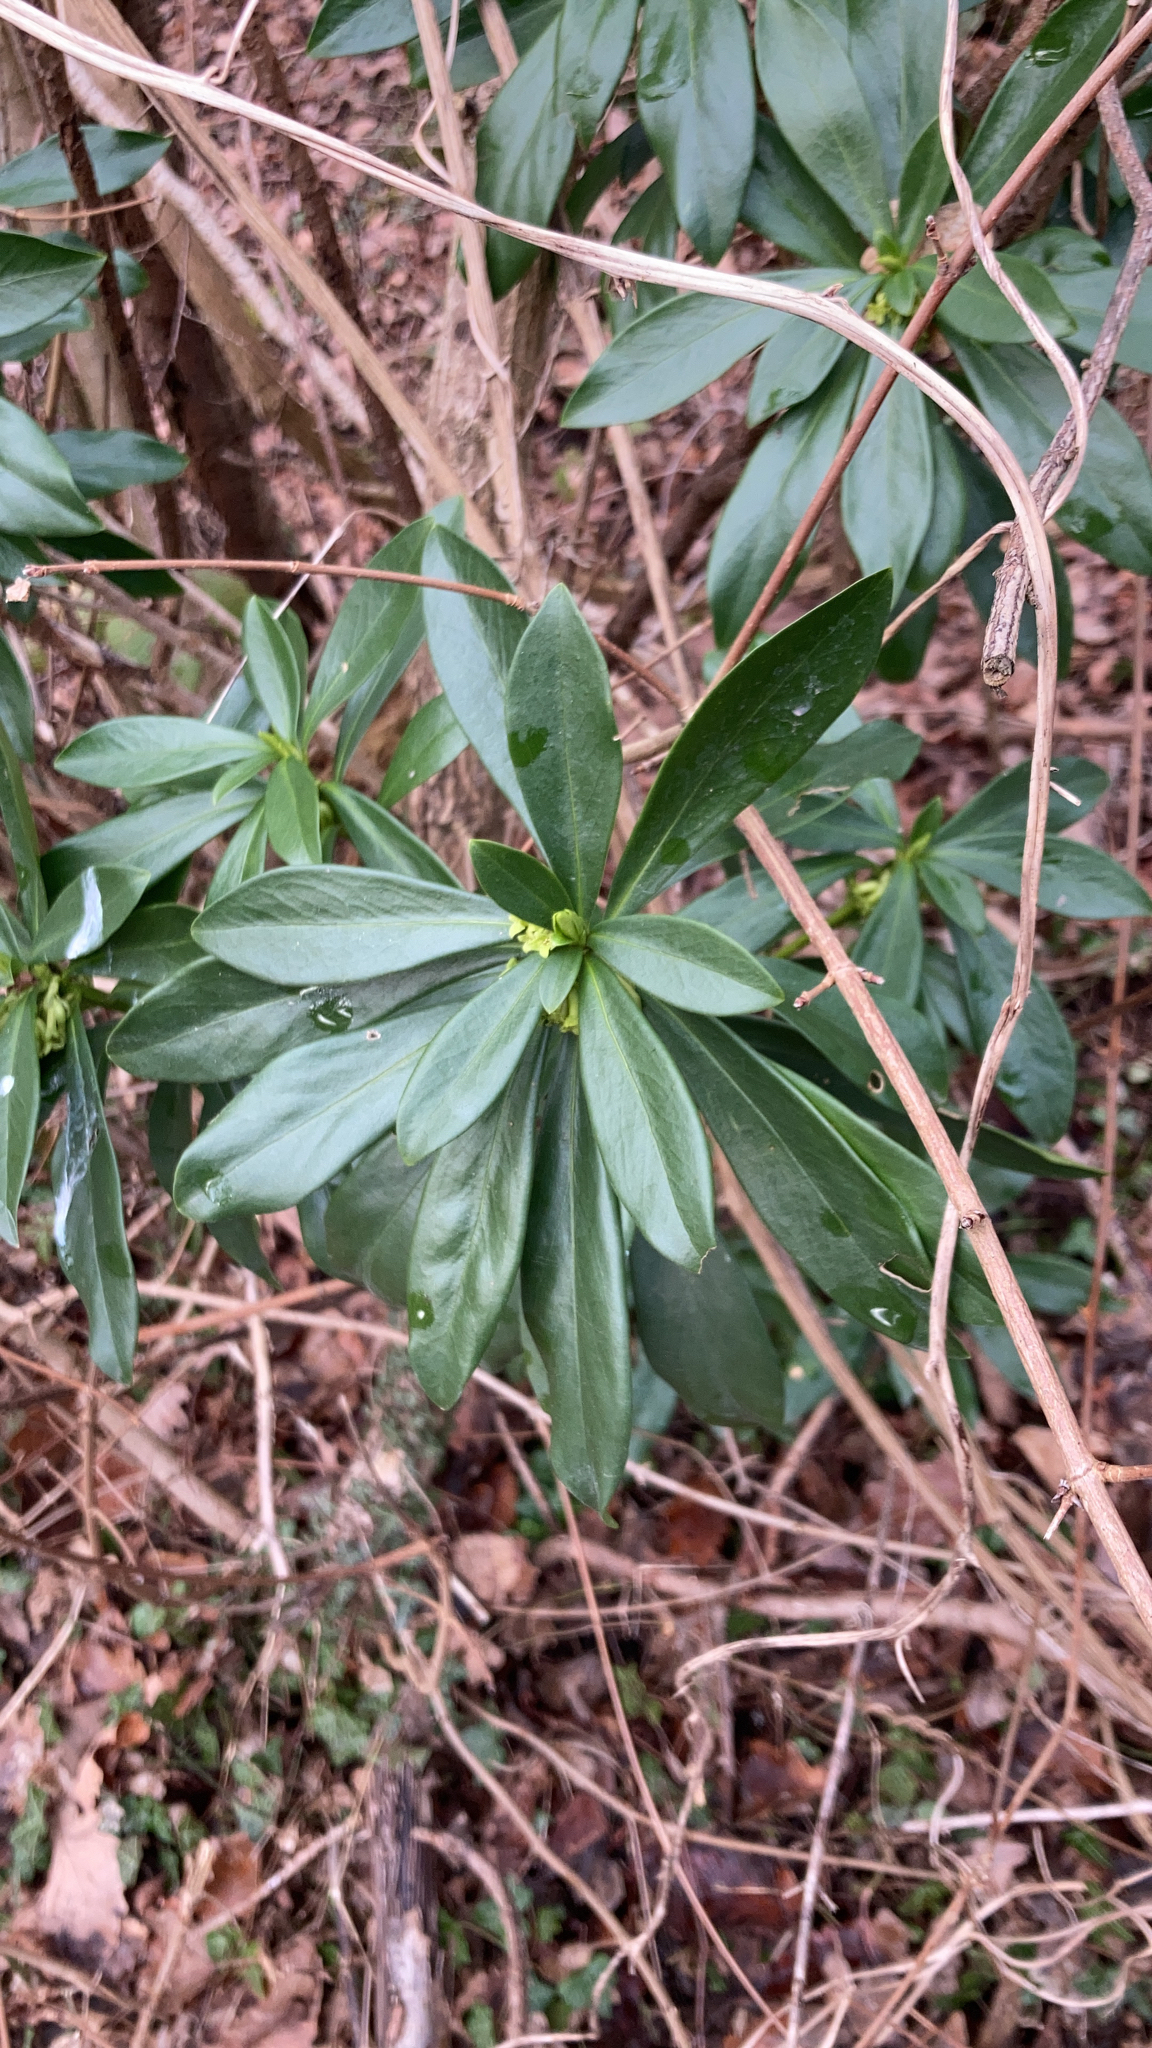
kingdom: Plantae
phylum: Tracheophyta
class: Magnoliopsida
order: Malvales
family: Thymelaeaceae
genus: Daphne
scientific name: Daphne laureola
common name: Spurge-laurel
